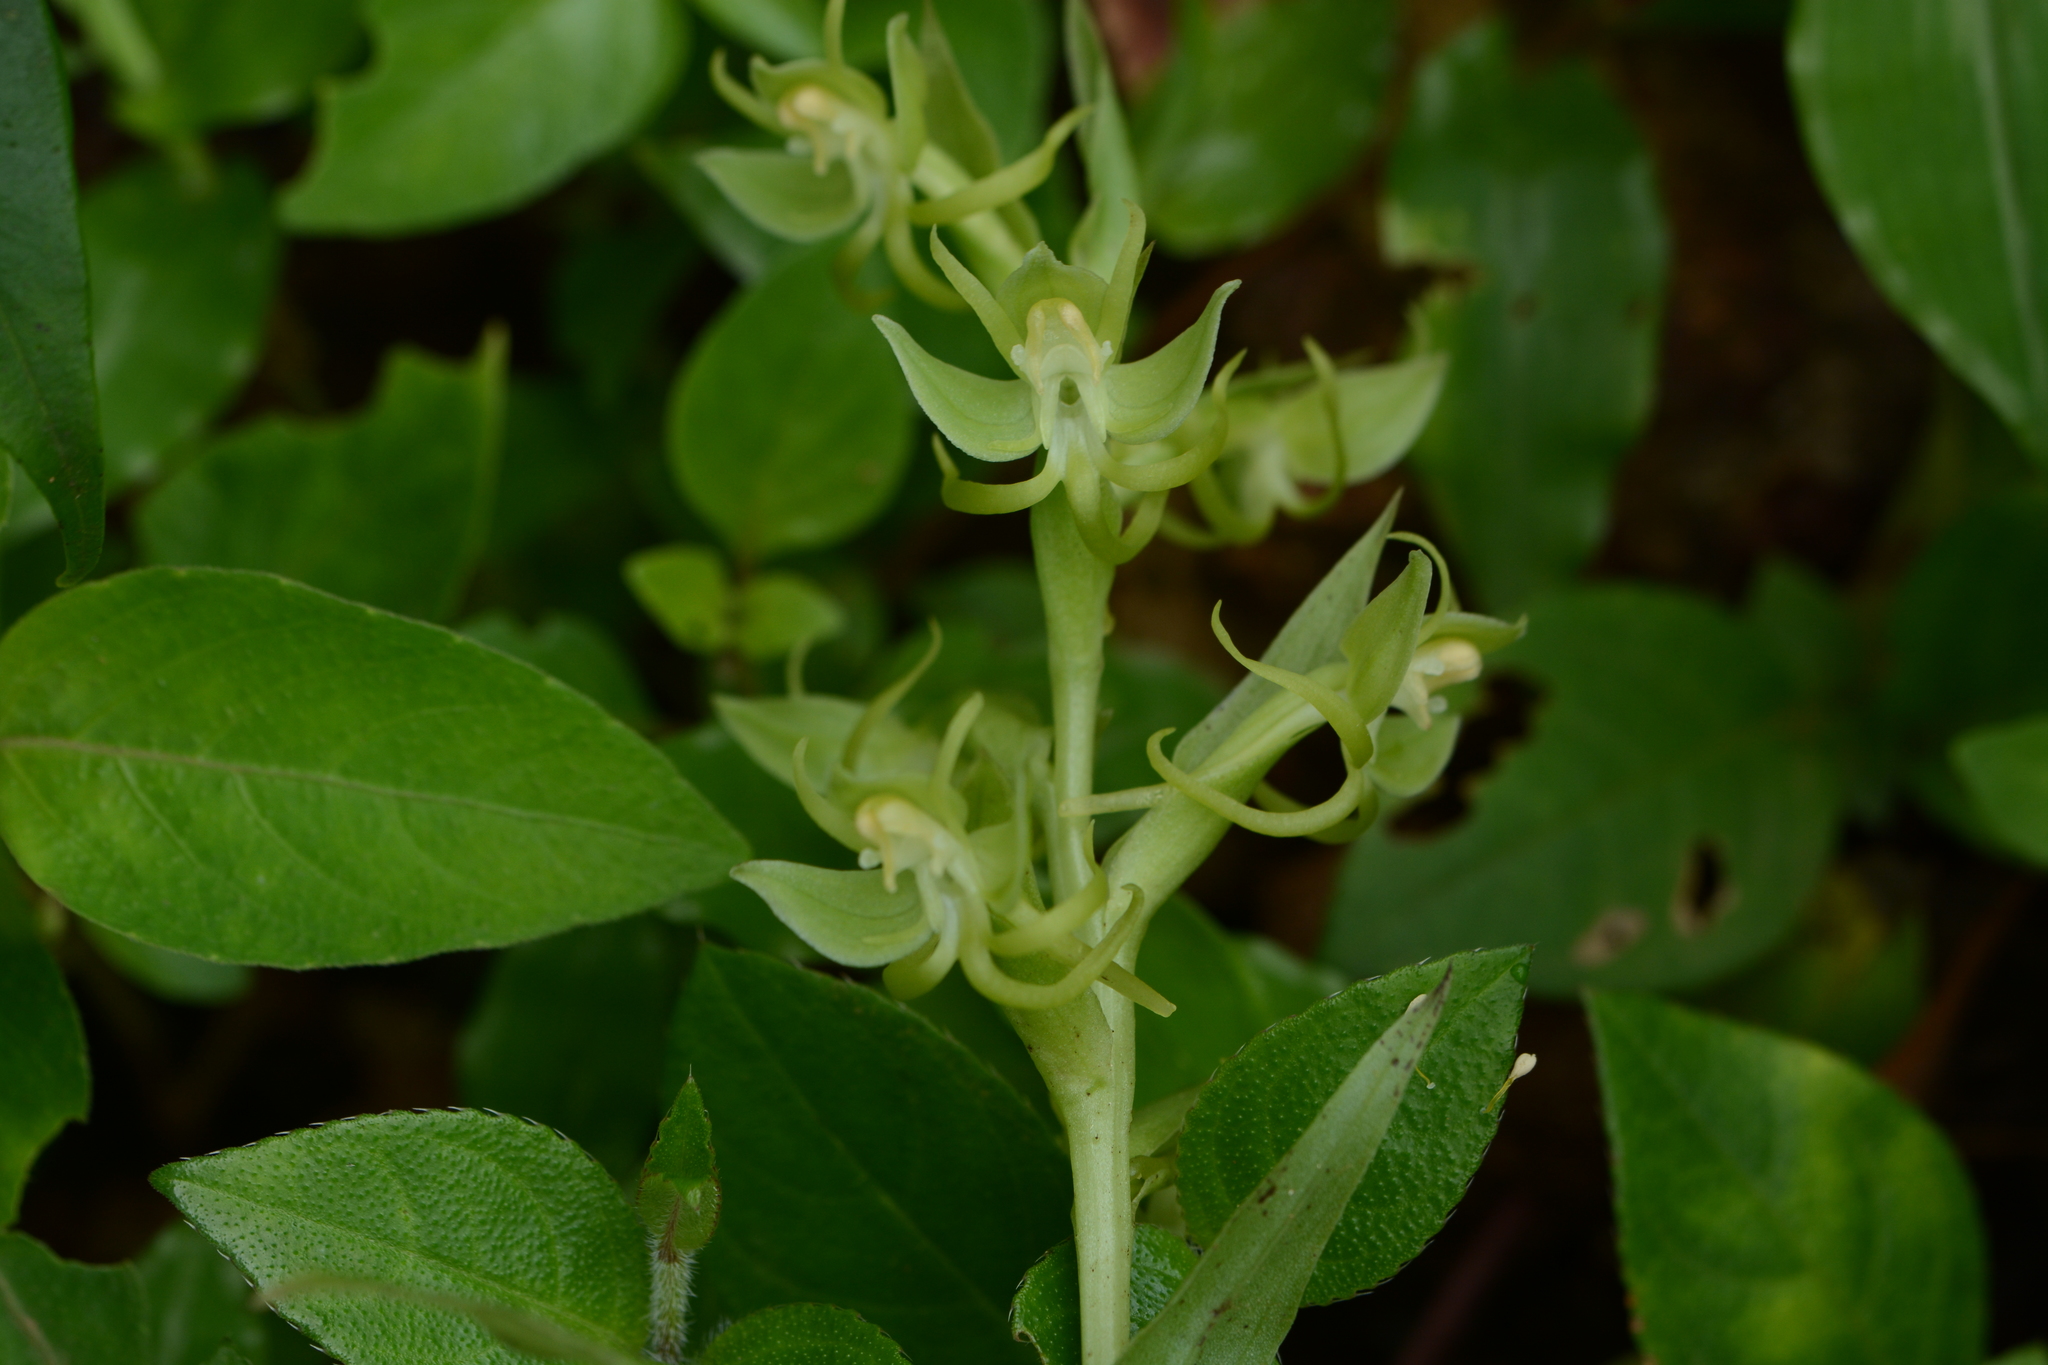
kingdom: Plantae
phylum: Tracheophyta
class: Liliopsida
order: Asparagales
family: Orchidaceae
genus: Habenaria
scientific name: Habenaria digitata
